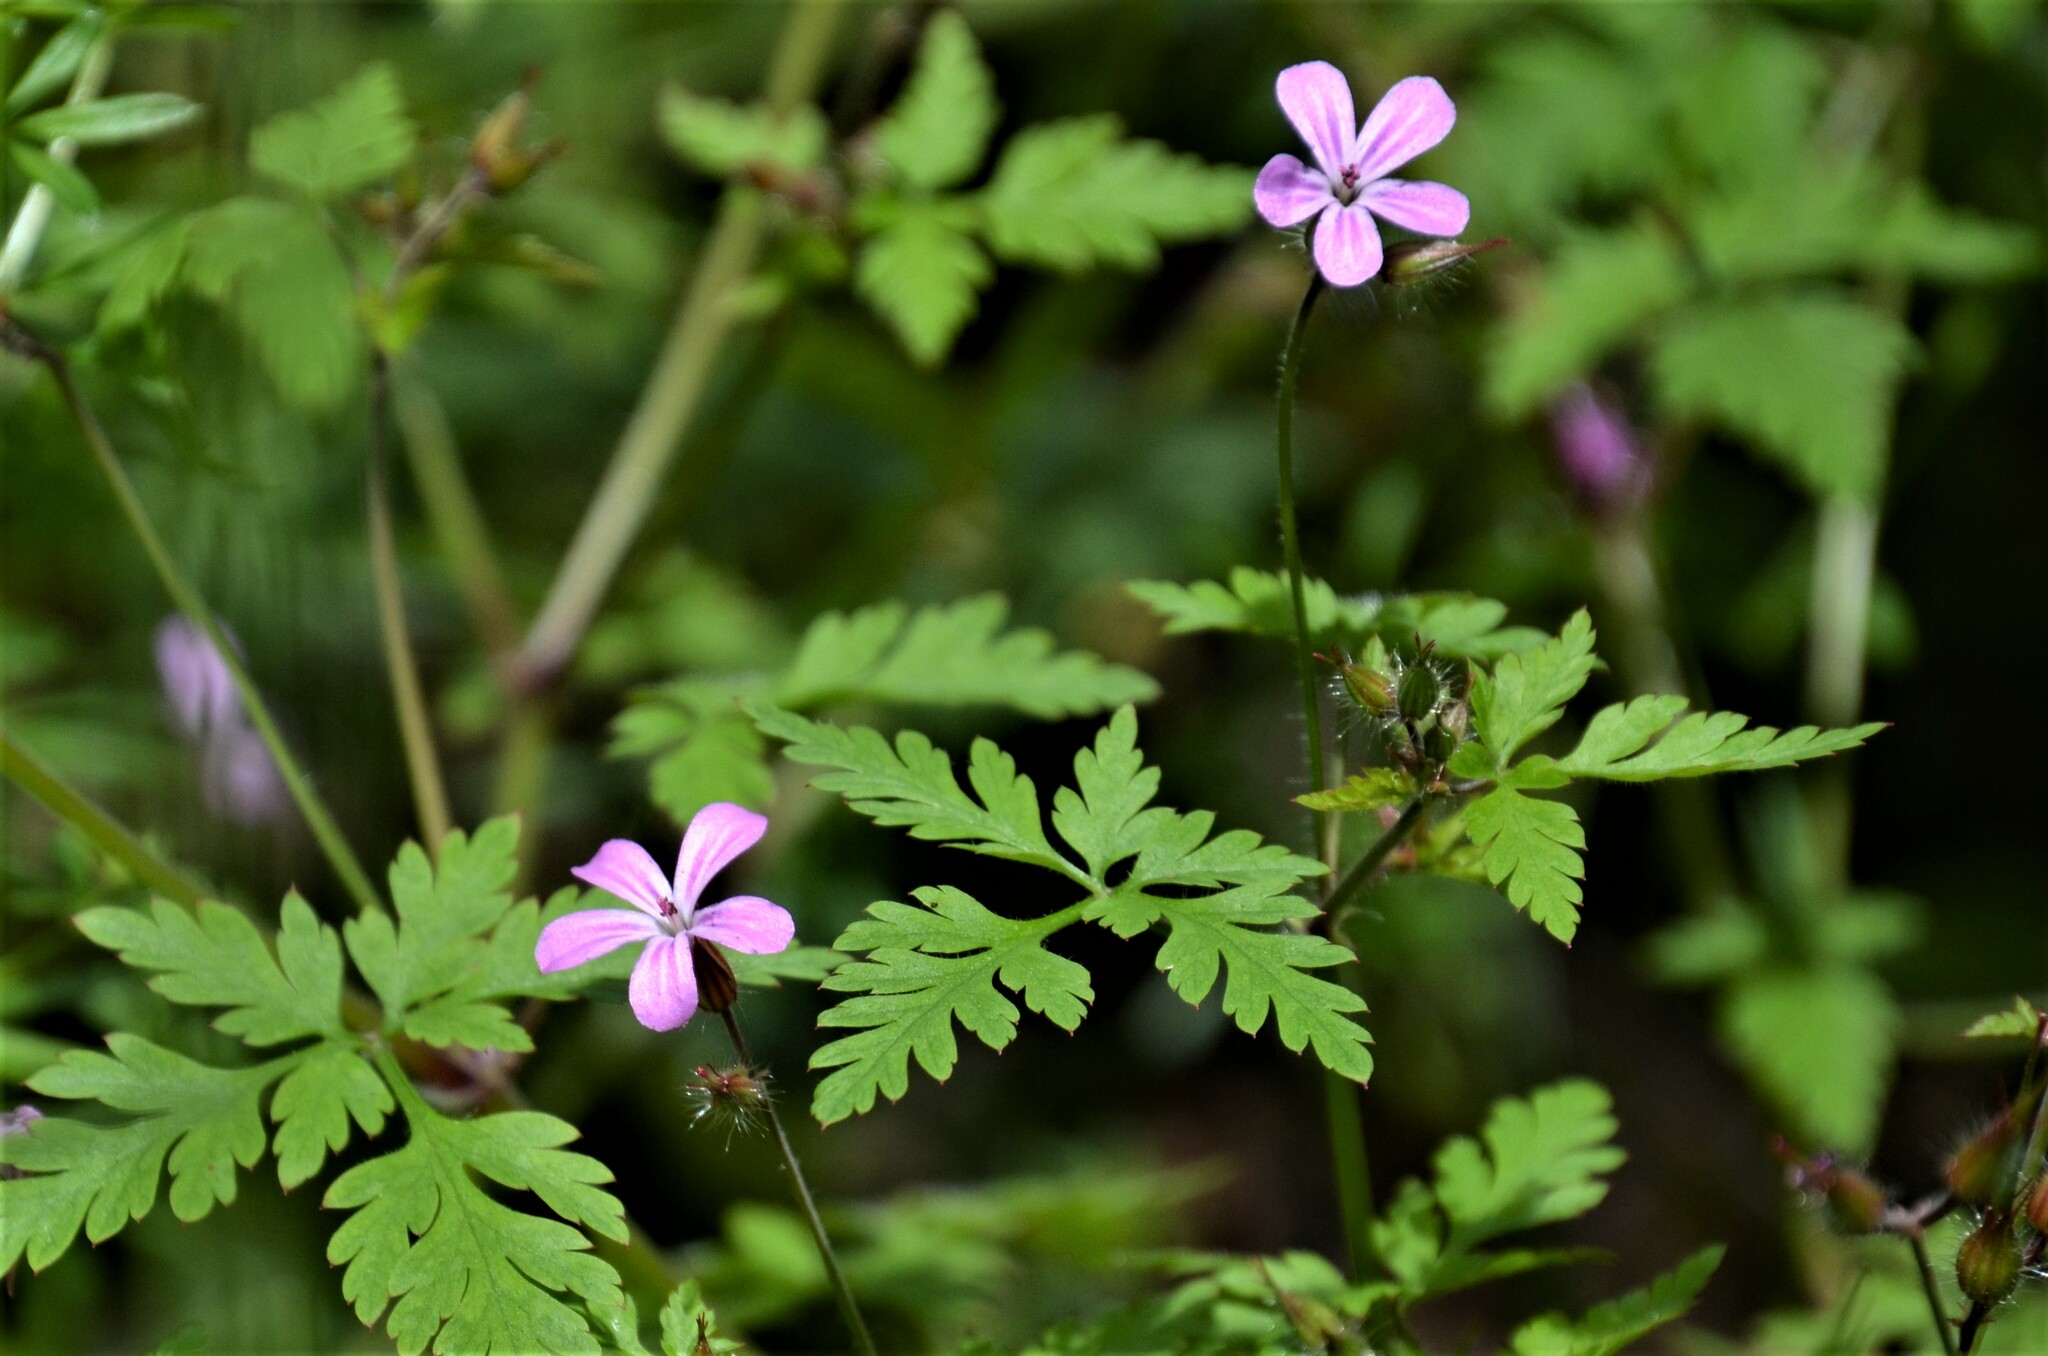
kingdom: Plantae
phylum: Tracheophyta
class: Magnoliopsida
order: Geraniales
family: Geraniaceae
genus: Geranium
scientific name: Geranium robertianum
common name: Herb-robert
